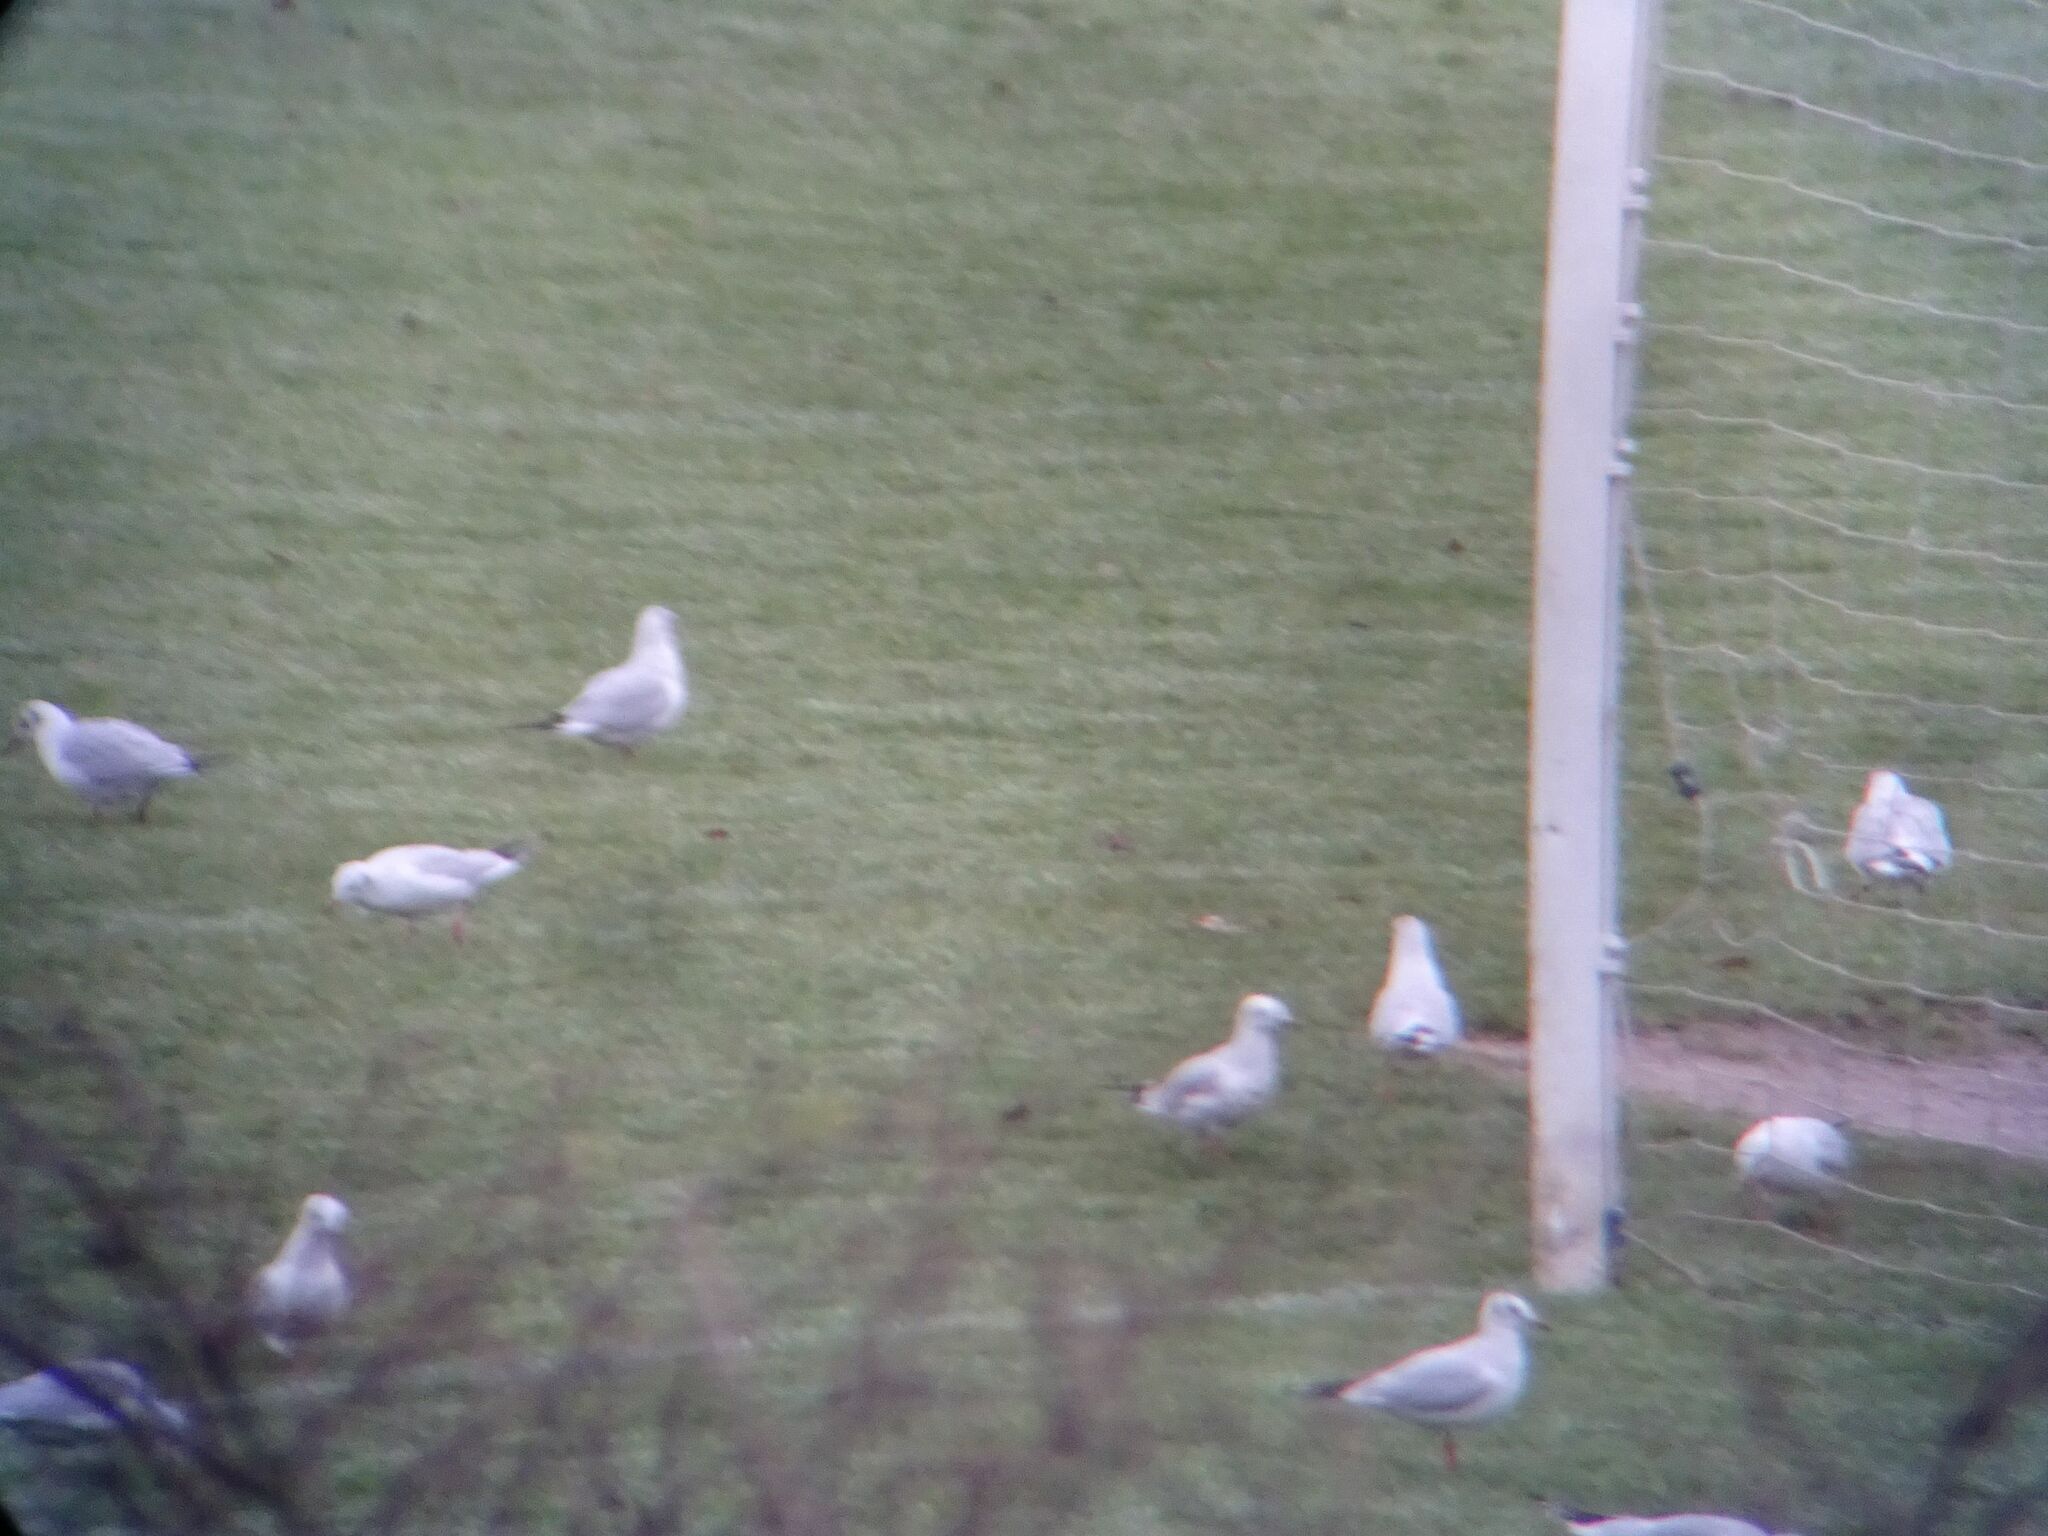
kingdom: Animalia
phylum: Chordata
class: Aves
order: Charadriiformes
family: Laridae
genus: Chroicocephalus
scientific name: Chroicocephalus ridibundus
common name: Black-headed gull
